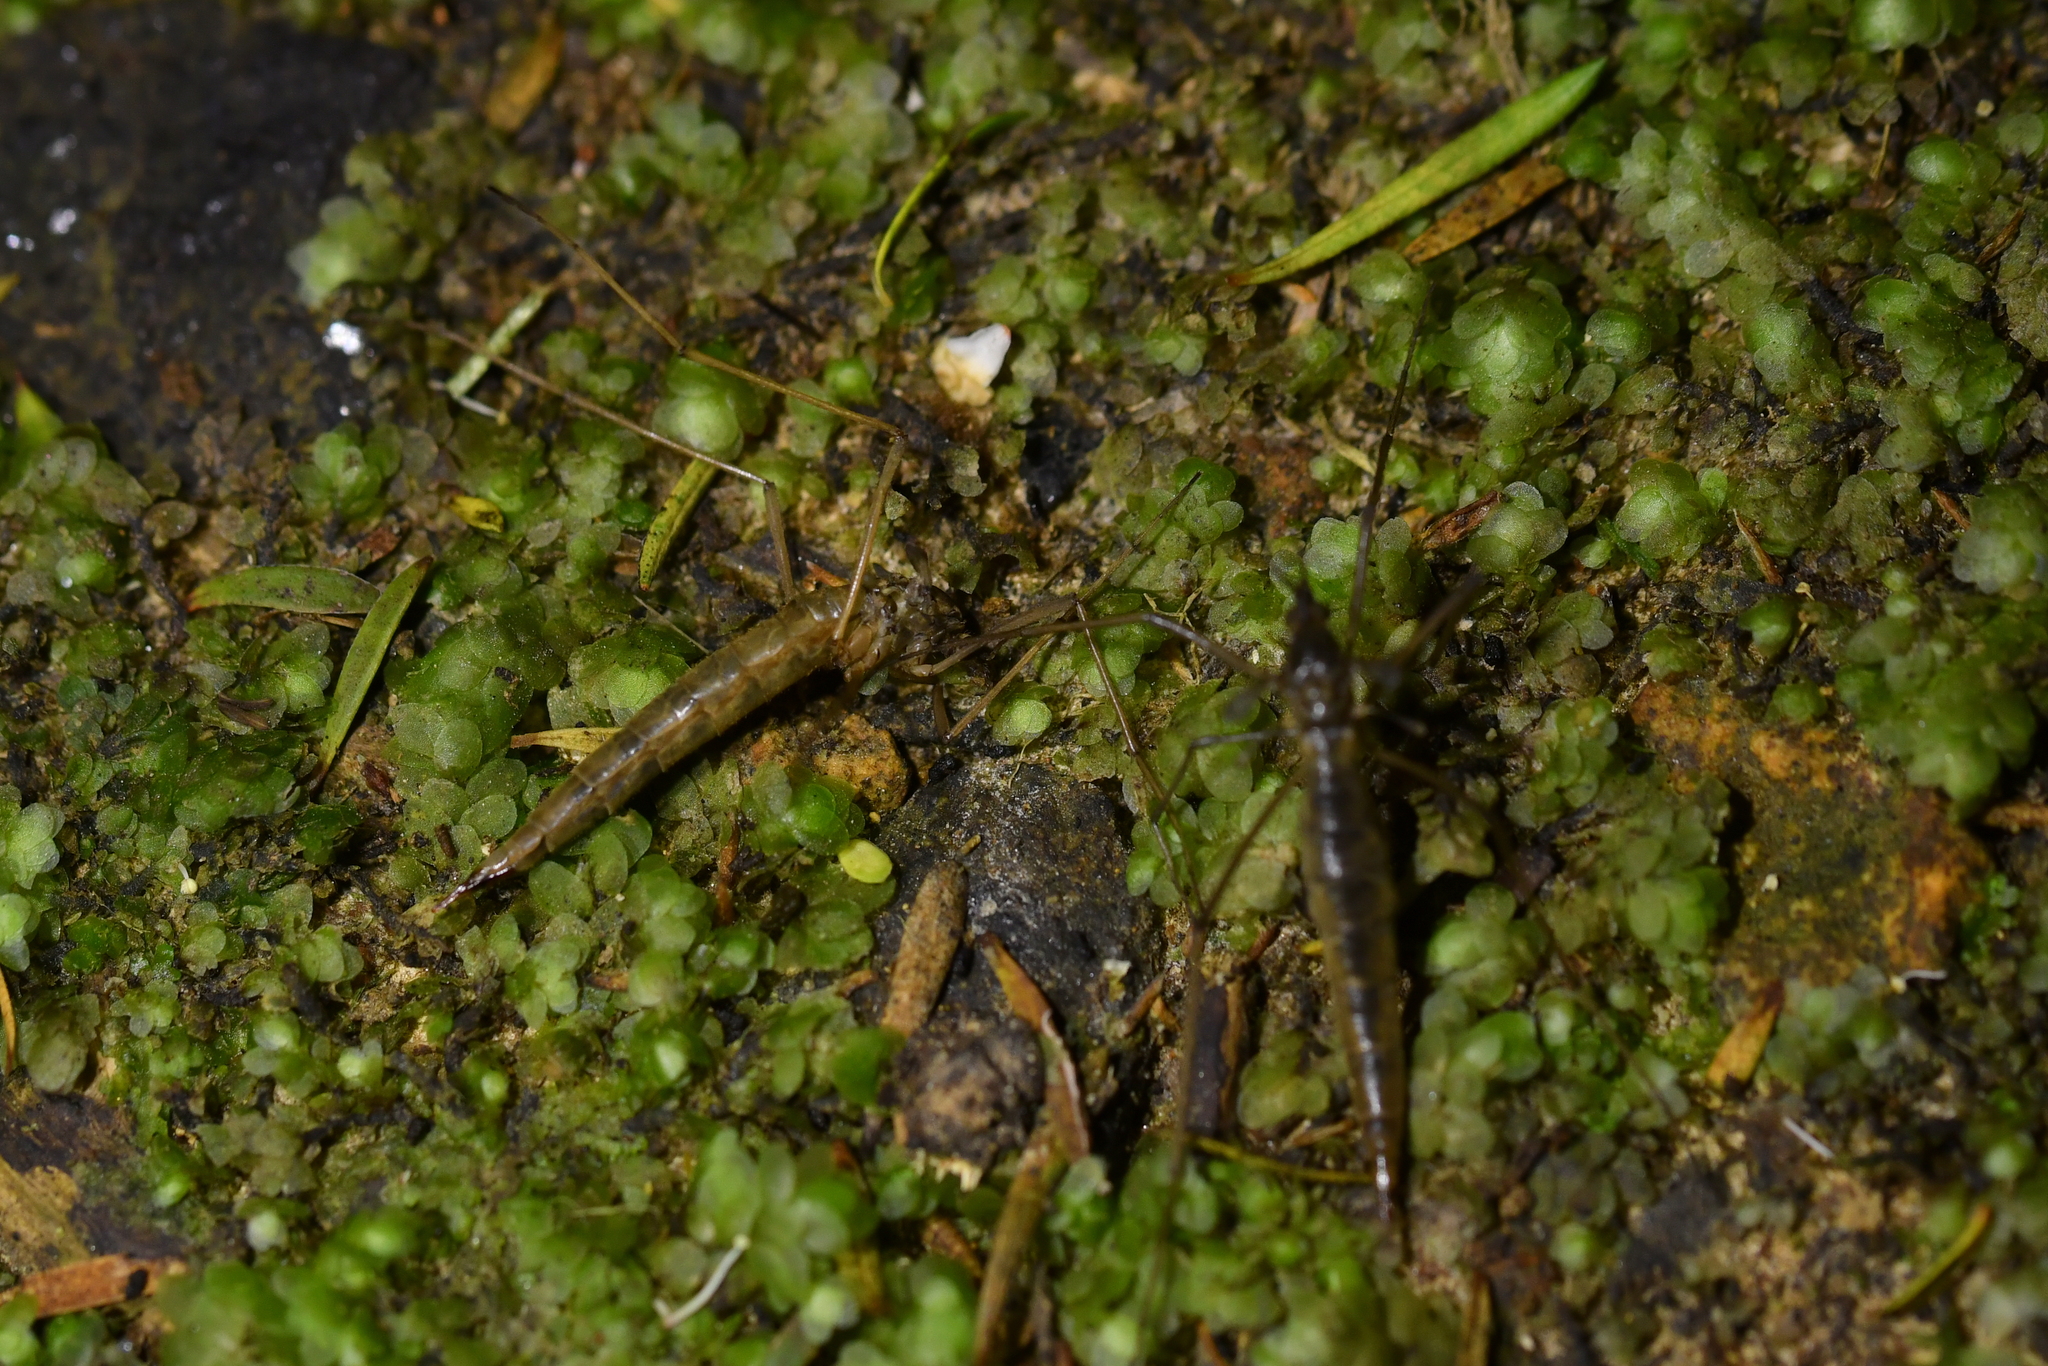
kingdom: Animalia
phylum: Arthropoda
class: Insecta
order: Diptera
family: Tipulidae
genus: Leptotarsus
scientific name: Leptotarsus zeylandiae
